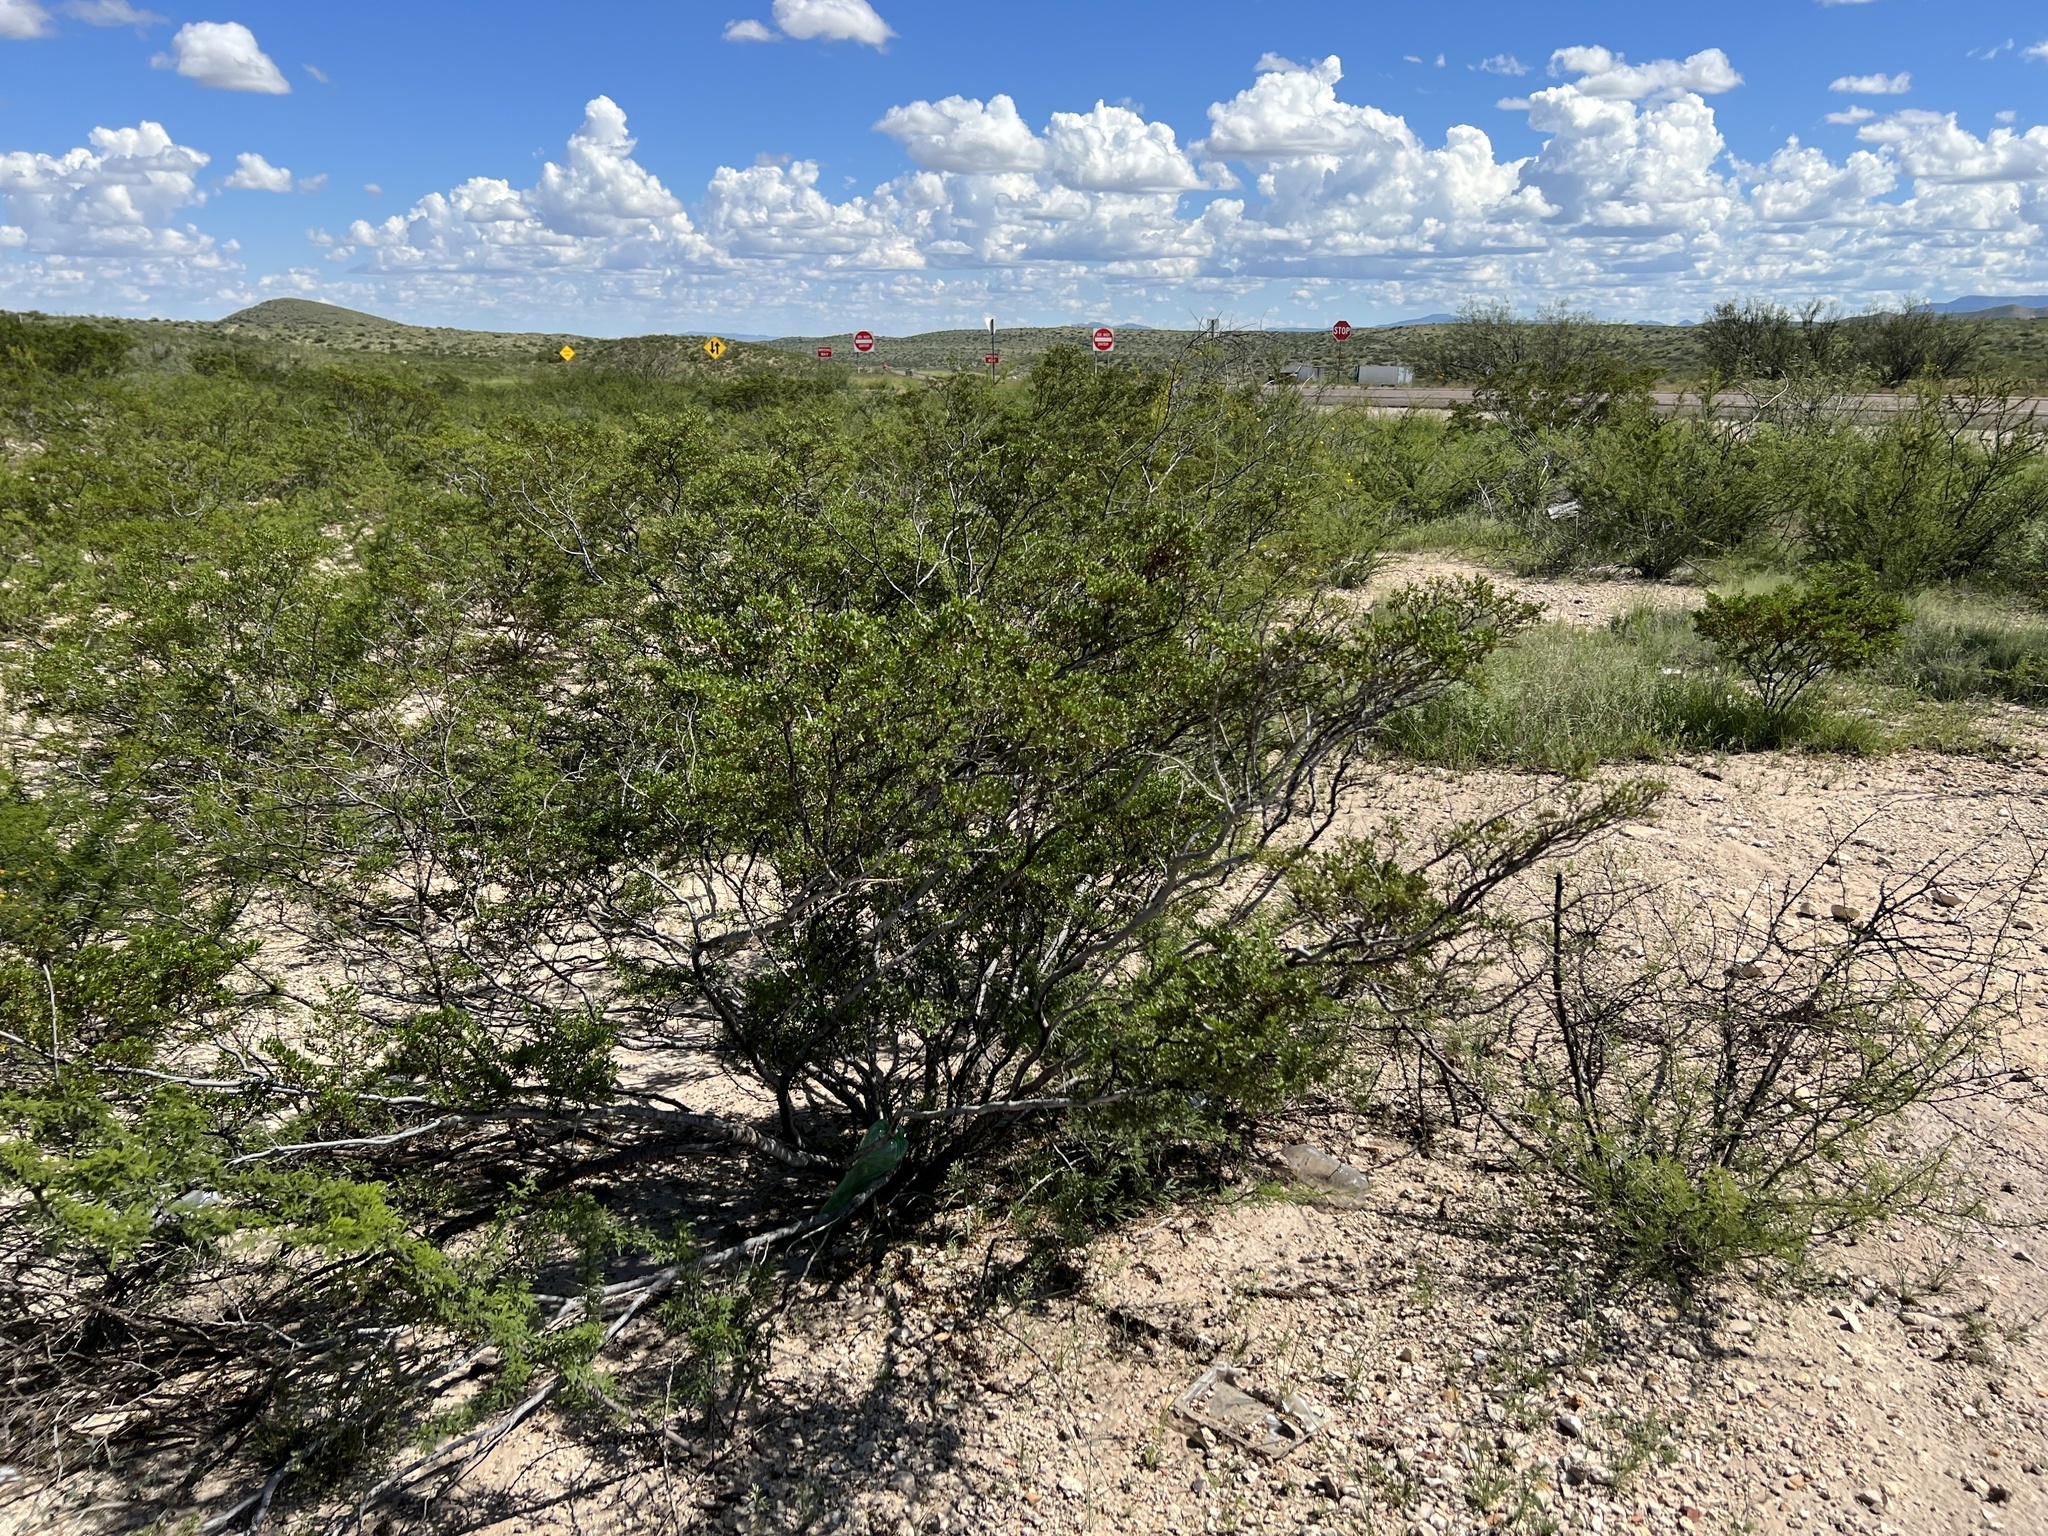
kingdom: Plantae
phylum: Tracheophyta
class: Magnoliopsida
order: Zygophyllales
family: Zygophyllaceae
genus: Larrea
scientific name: Larrea tridentata
